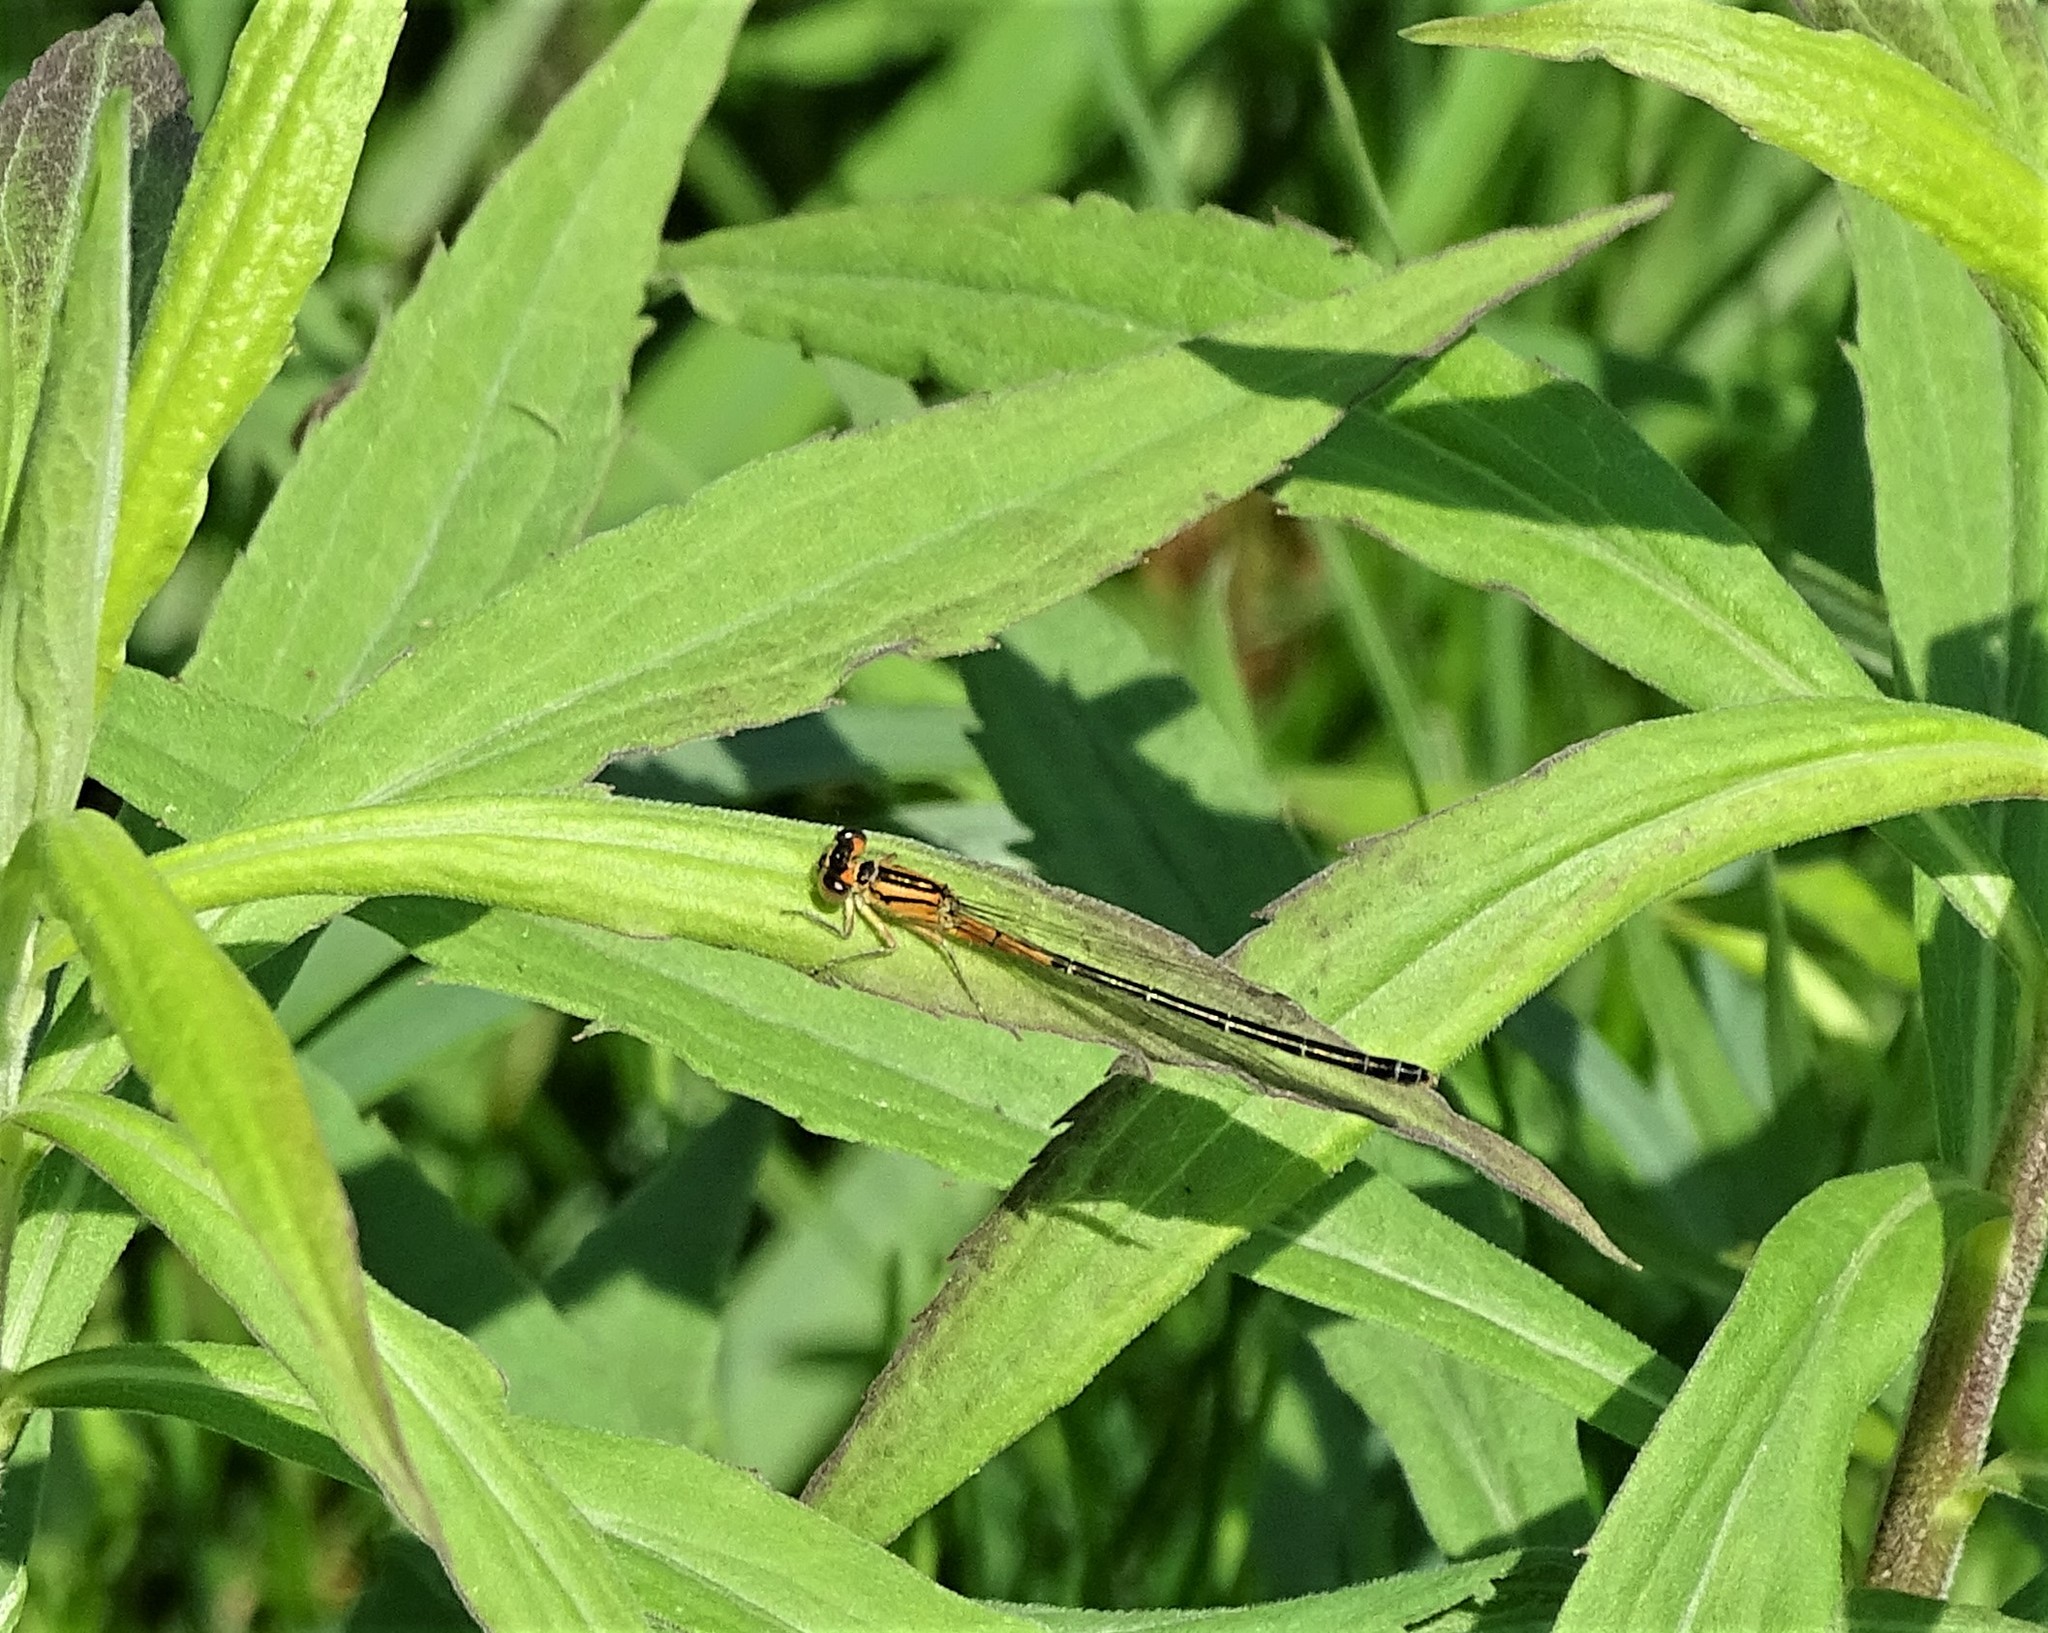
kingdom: Animalia
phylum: Arthropoda
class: Insecta
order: Odonata
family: Coenagrionidae
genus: Ischnura
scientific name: Ischnura verticalis
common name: Eastern forktail
